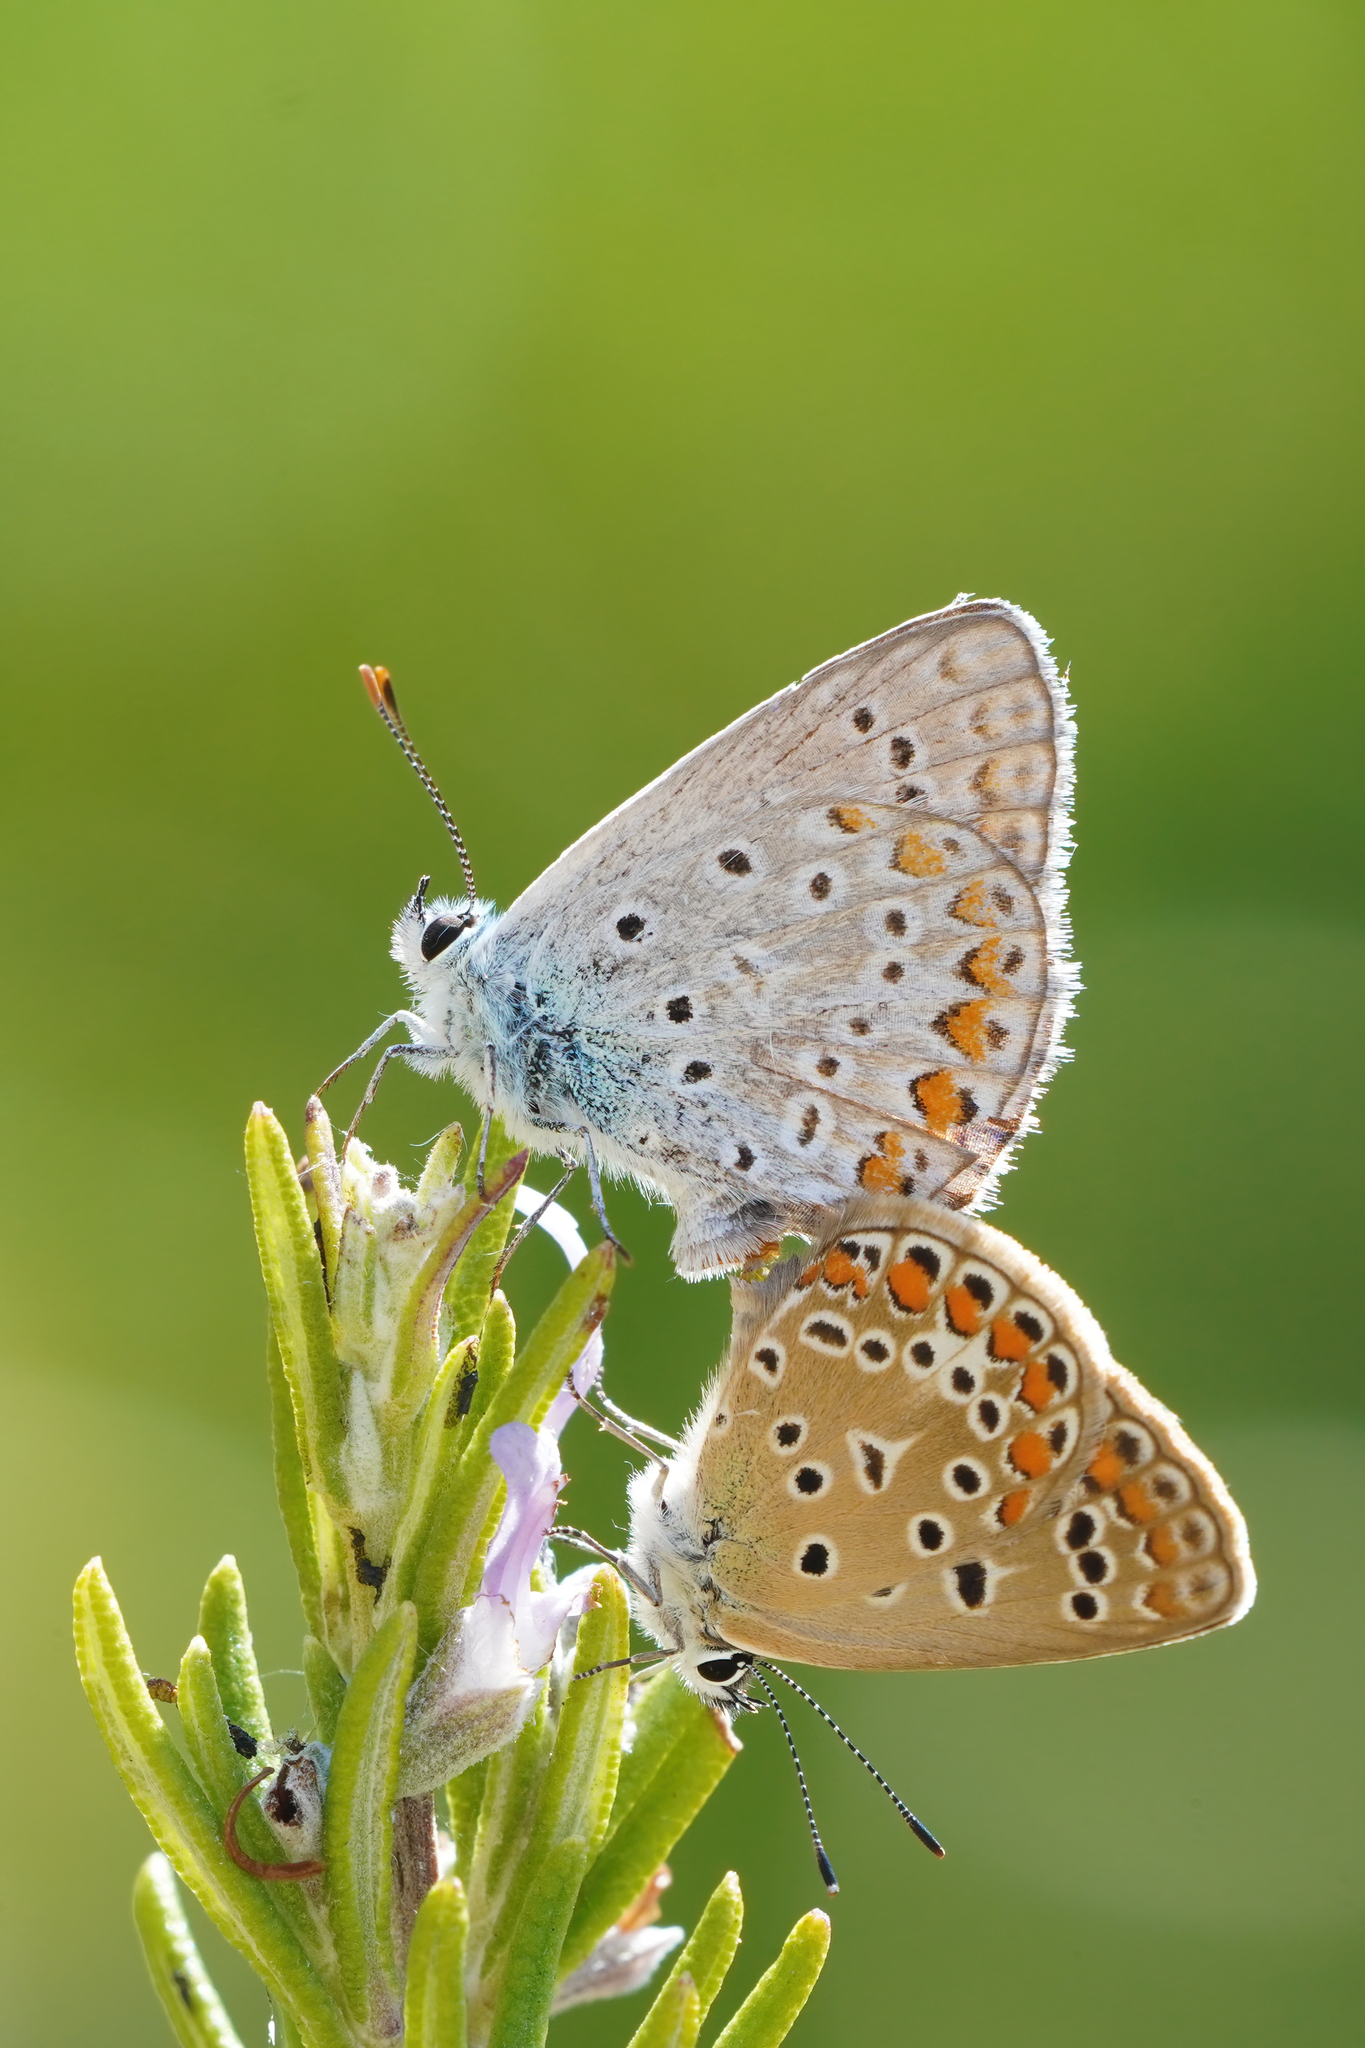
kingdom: Animalia
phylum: Arthropoda
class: Insecta
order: Lepidoptera
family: Lycaenidae
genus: Polyommatus
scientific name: Polyommatus icarus
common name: Common blue
